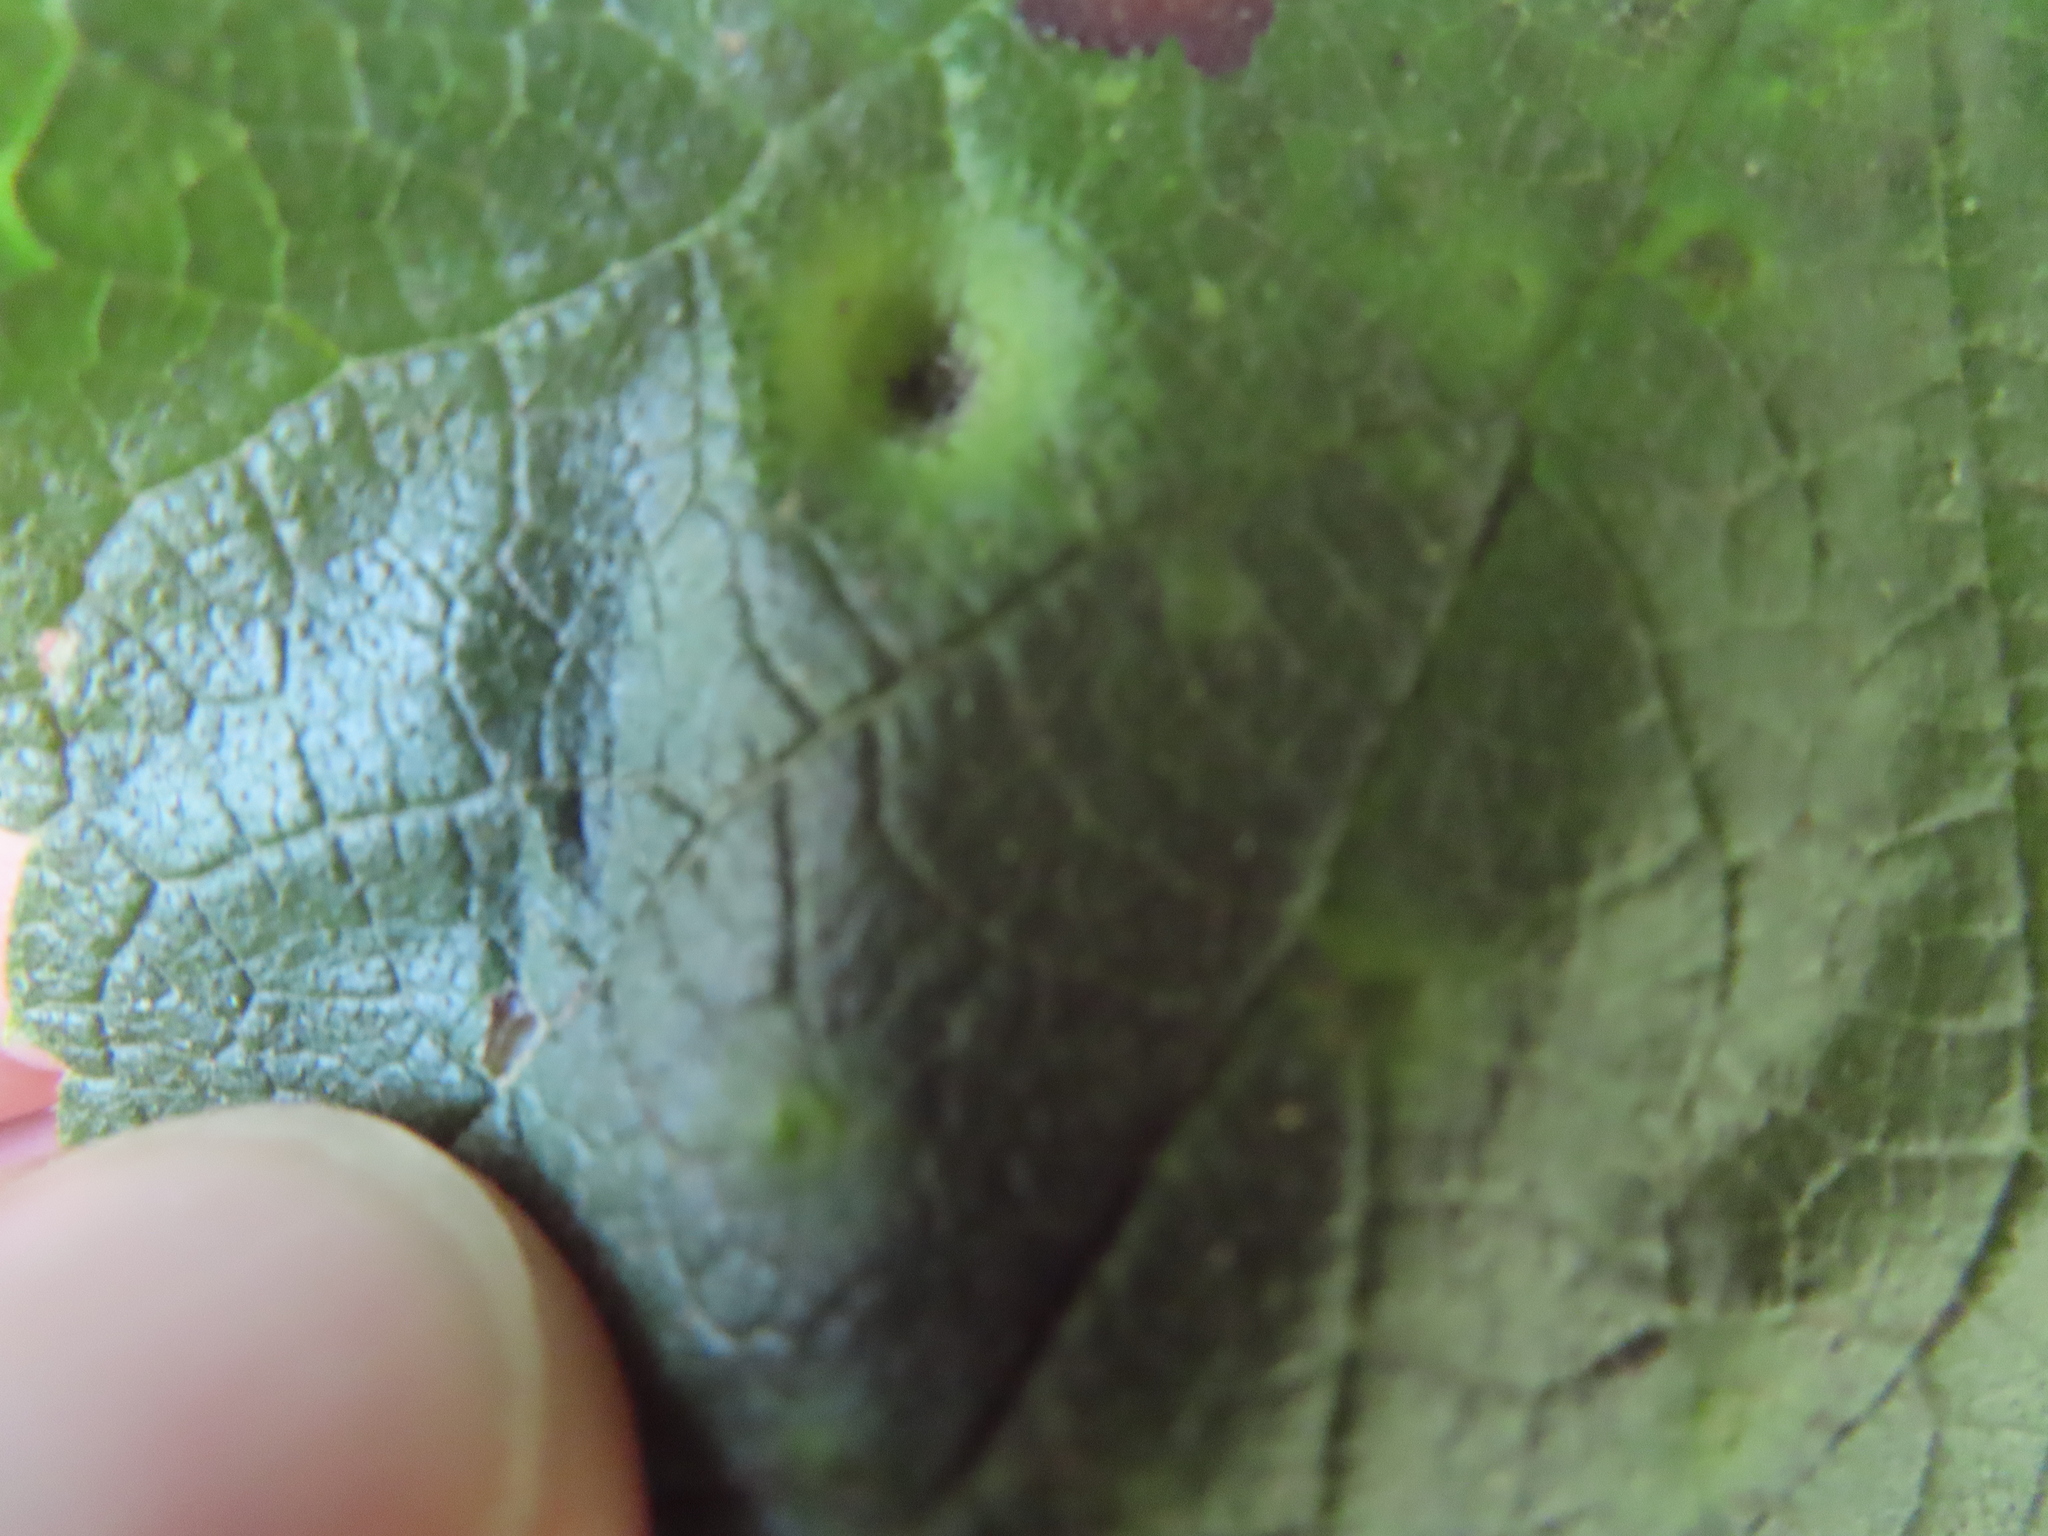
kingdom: Animalia
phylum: Arthropoda
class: Insecta
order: Hemiptera
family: Aphalaridae
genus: Pachypsylla
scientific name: Pachypsylla celtidismamma
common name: Hackberry nipplegall psyllid
